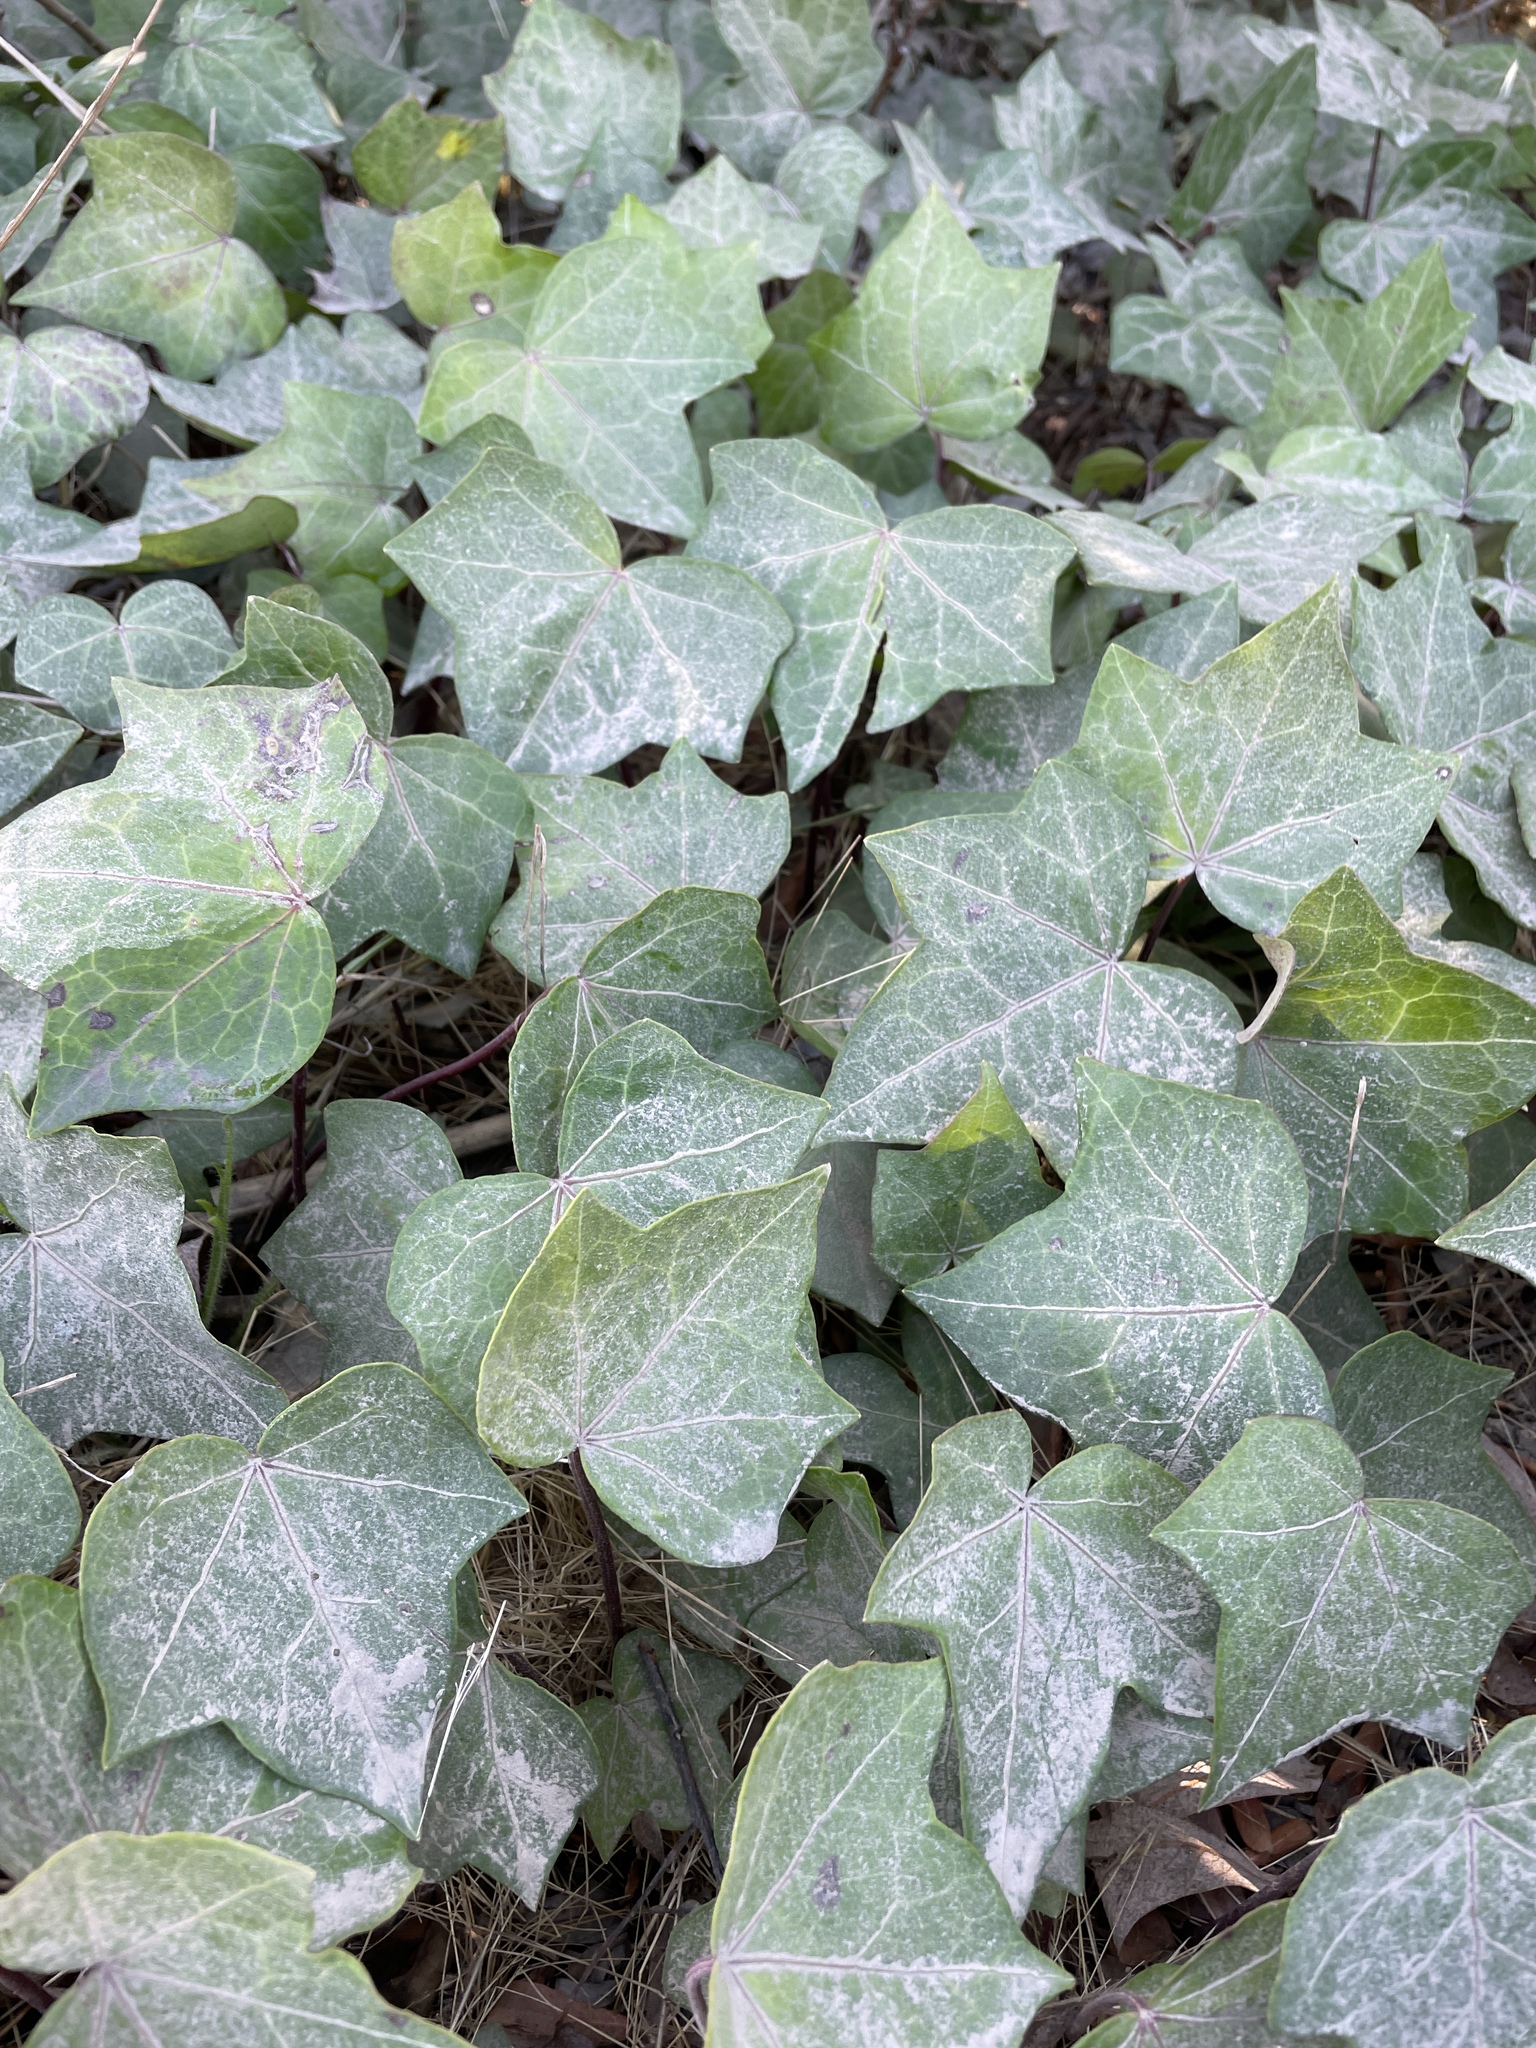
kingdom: Plantae
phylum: Tracheophyta
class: Magnoliopsida
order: Apiales
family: Araliaceae
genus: Hedera
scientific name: Hedera helix
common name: Ivy
